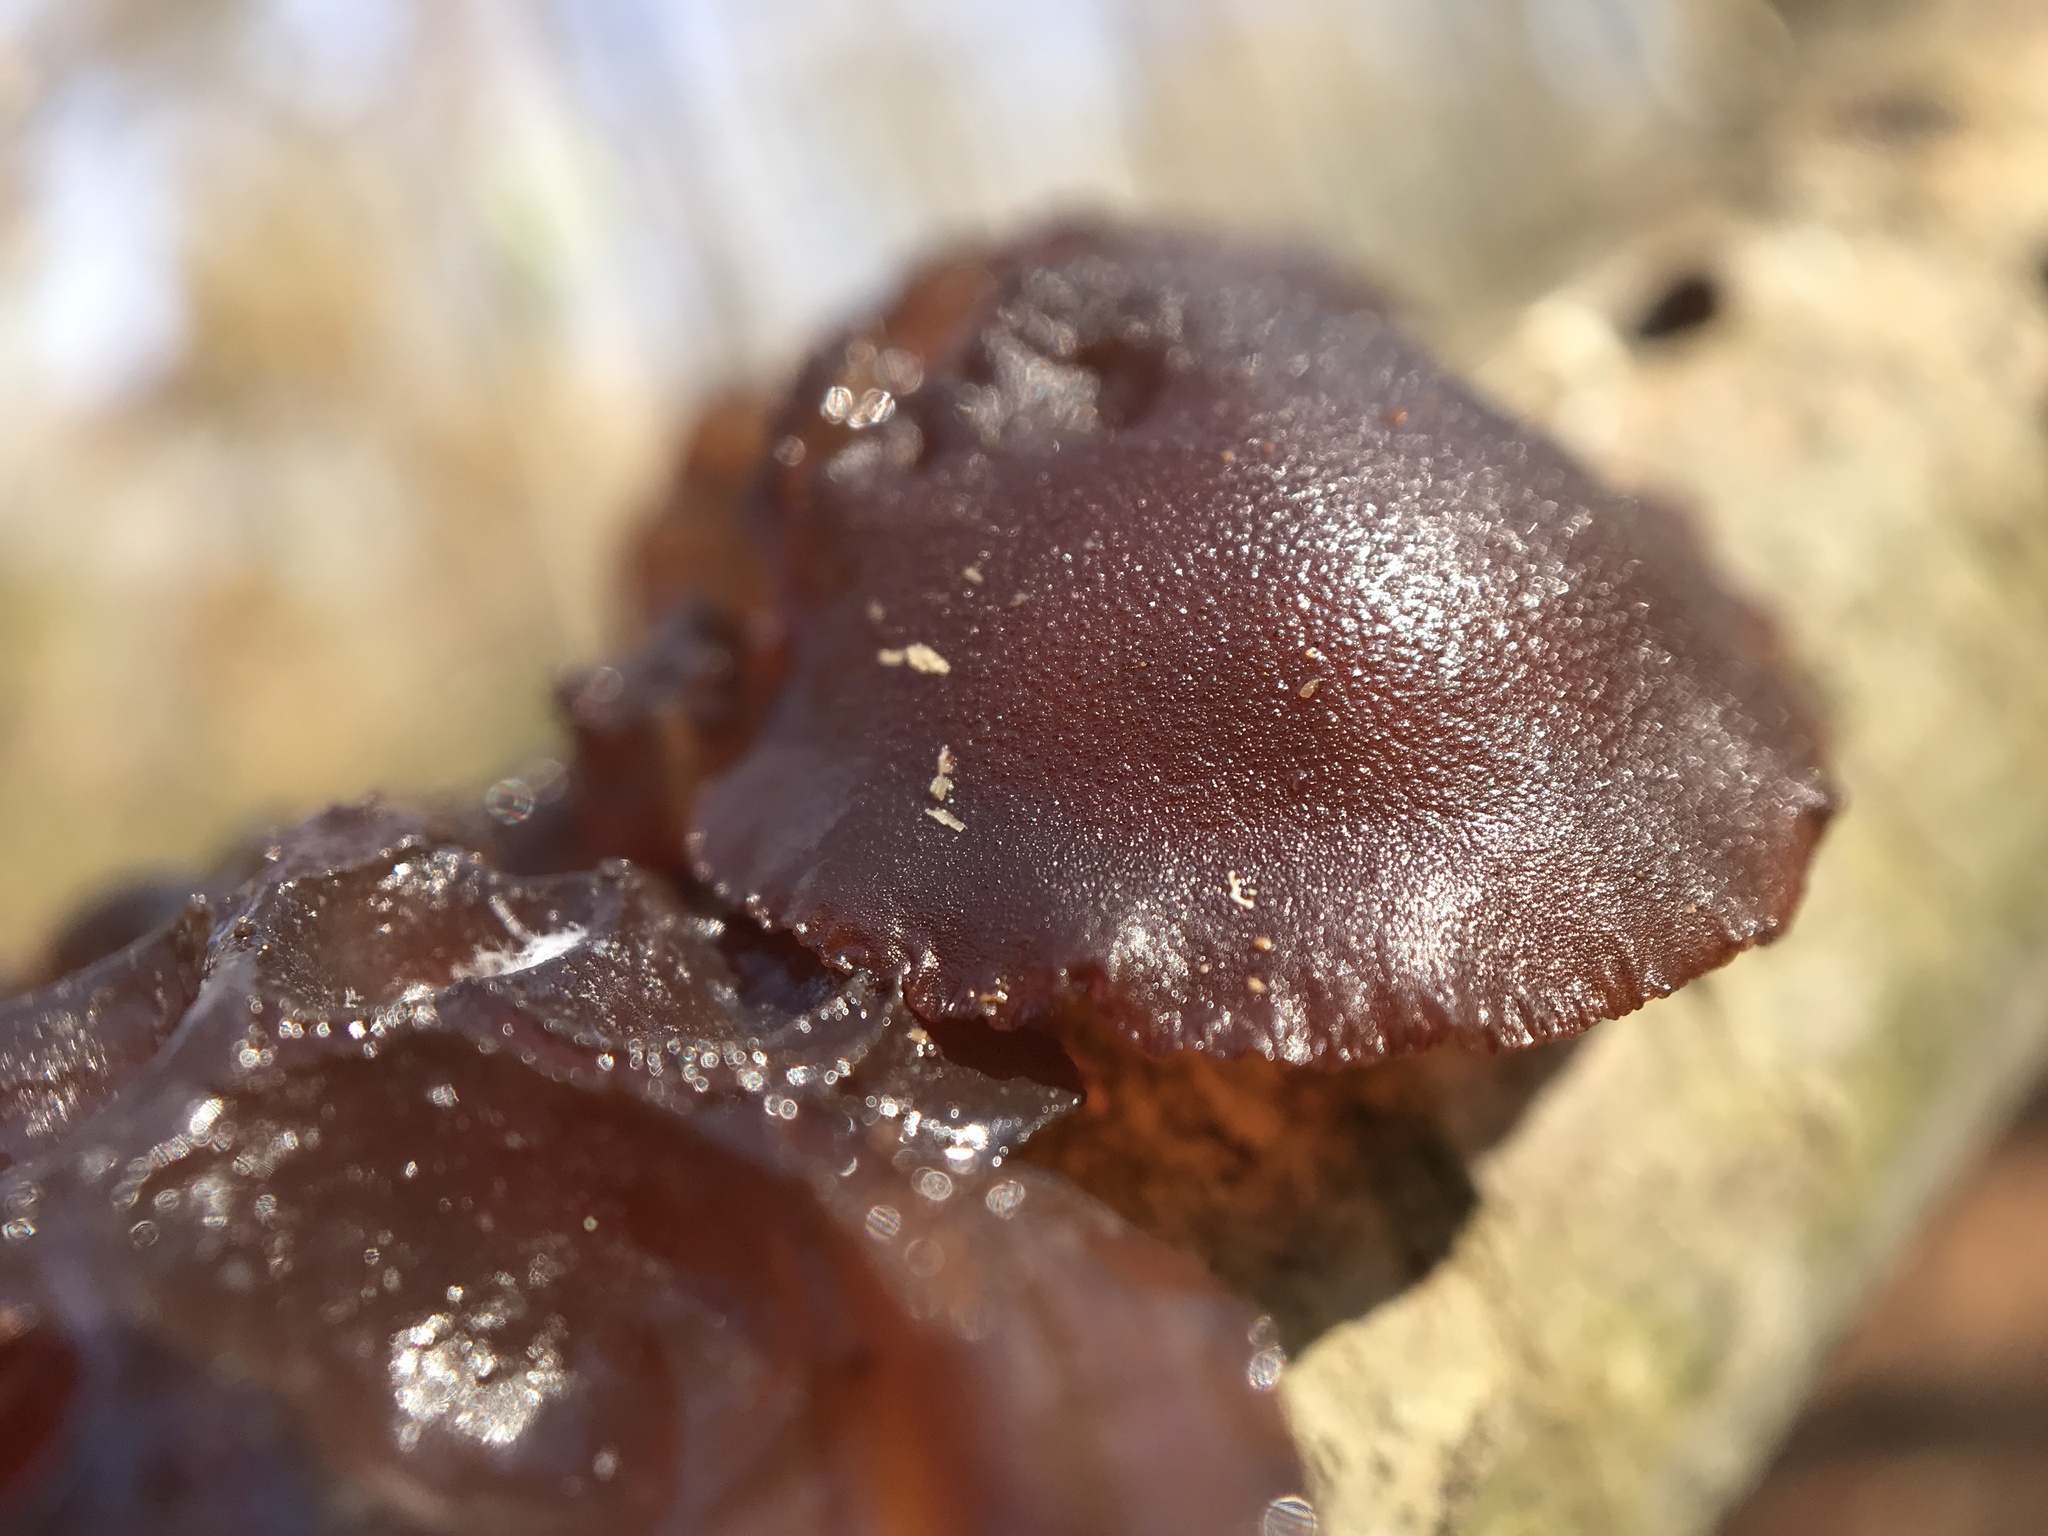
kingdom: Fungi
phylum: Basidiomycota
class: Agaricomycetes
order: Auriculariales
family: Auriculariaceae
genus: Exidia
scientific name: Exidia
